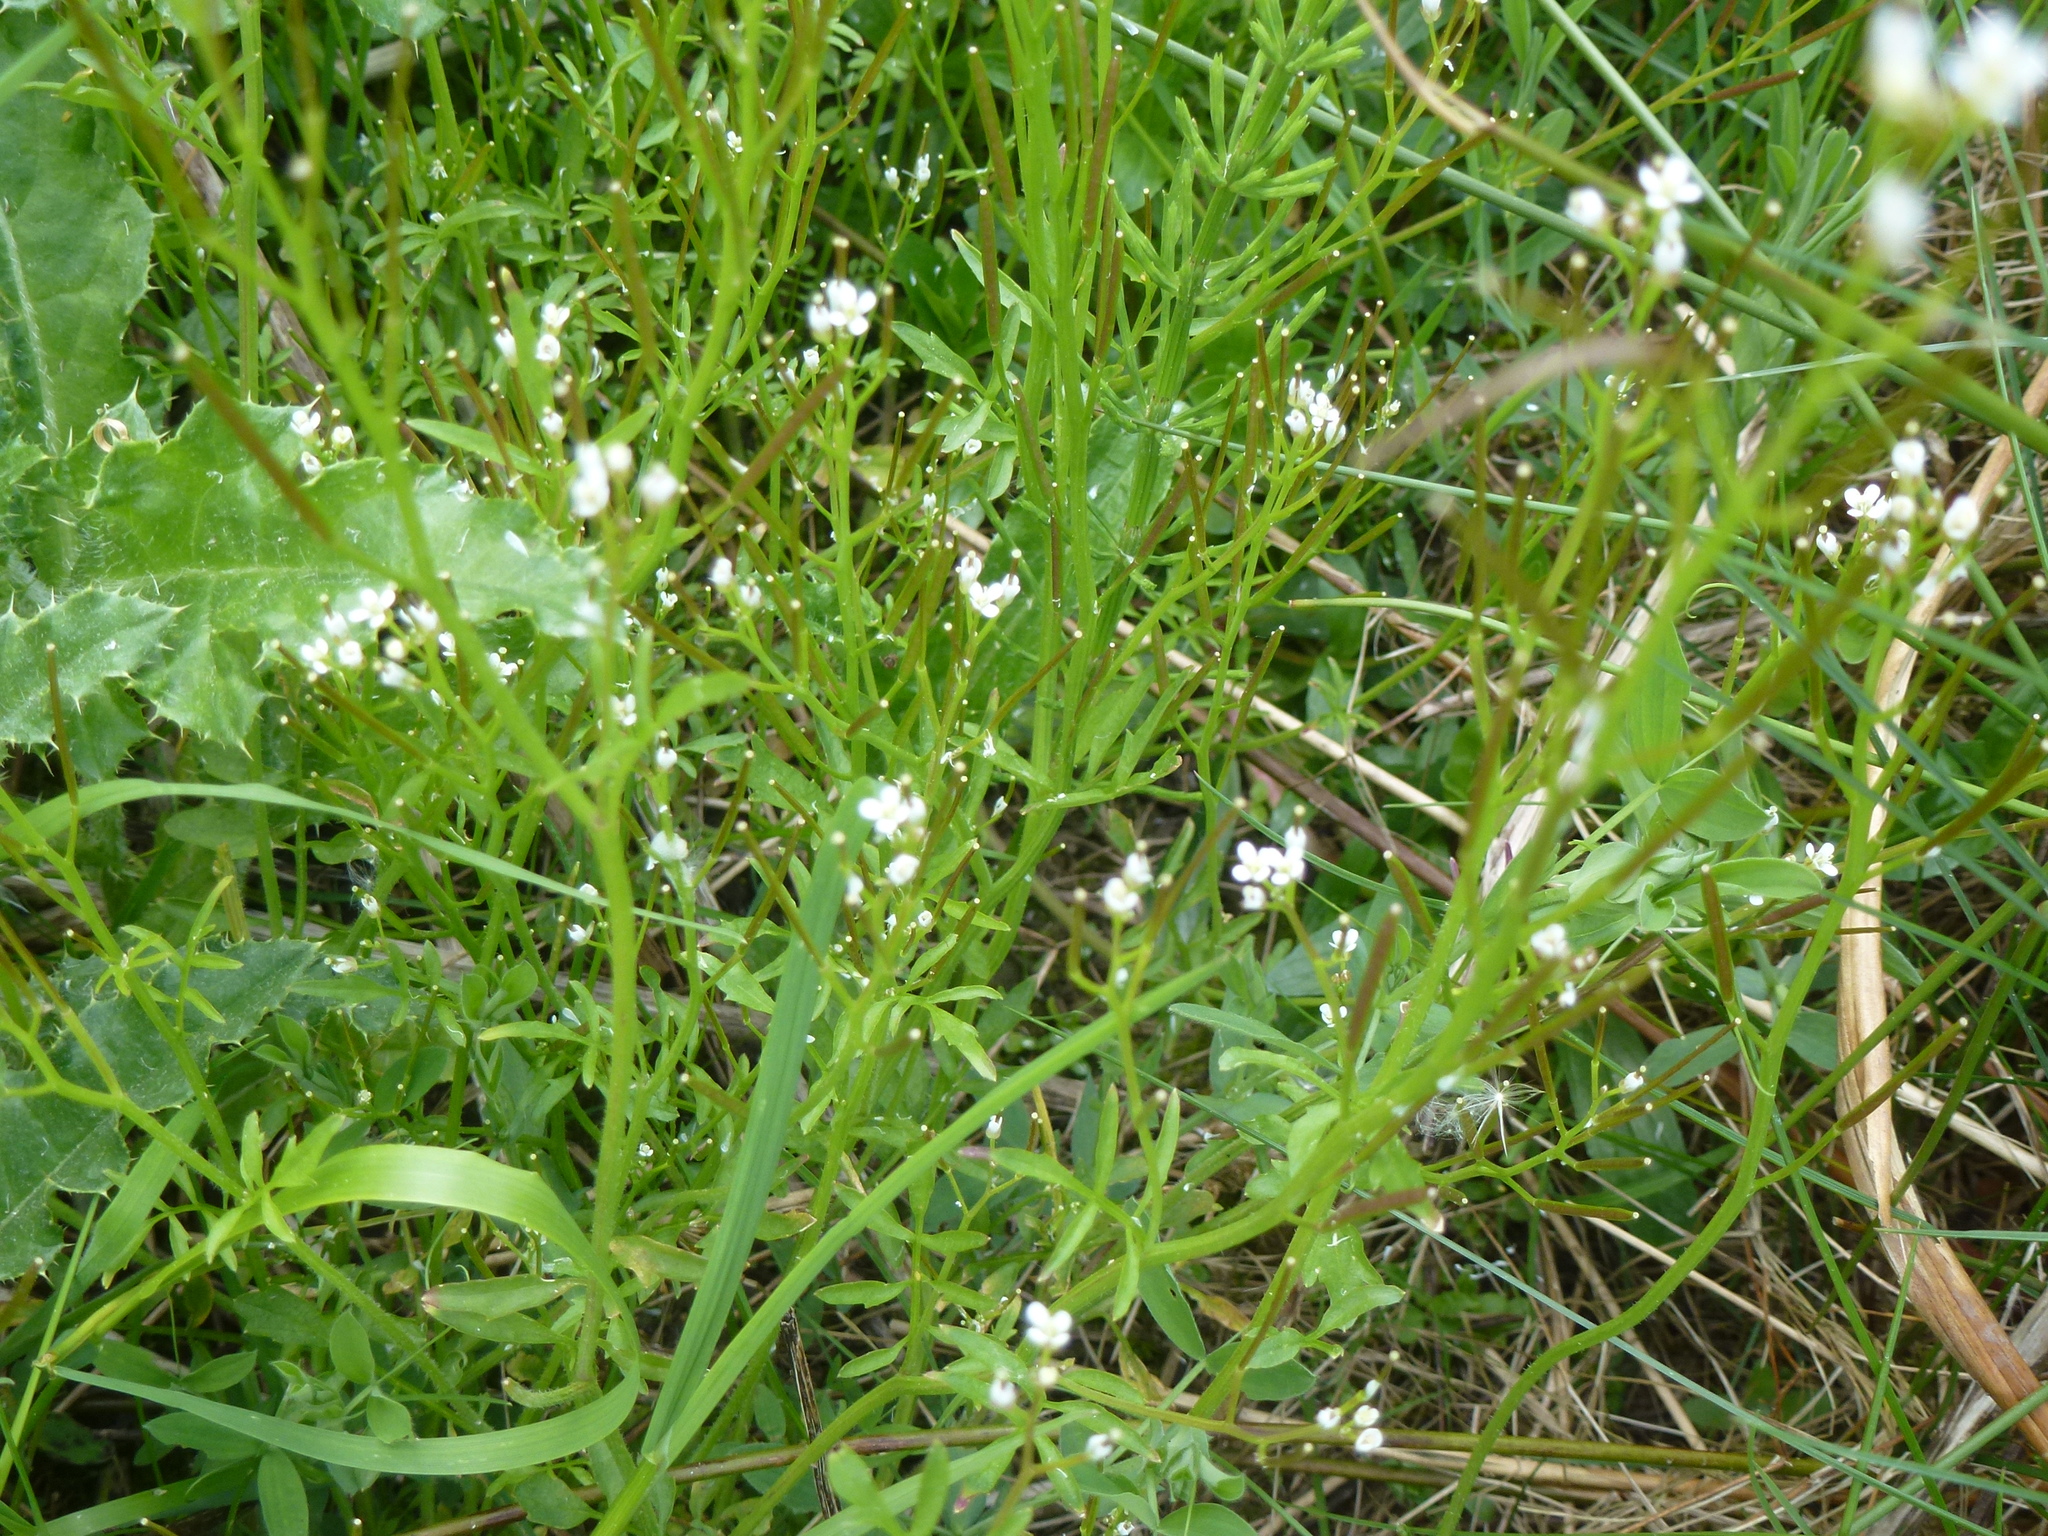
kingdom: Plantae
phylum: Tracheophyta
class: Magnoliopsida
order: Brassicales
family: Brassicaceae
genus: Cardamine
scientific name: Cardamine flexuosa
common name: Woodland bittercress
